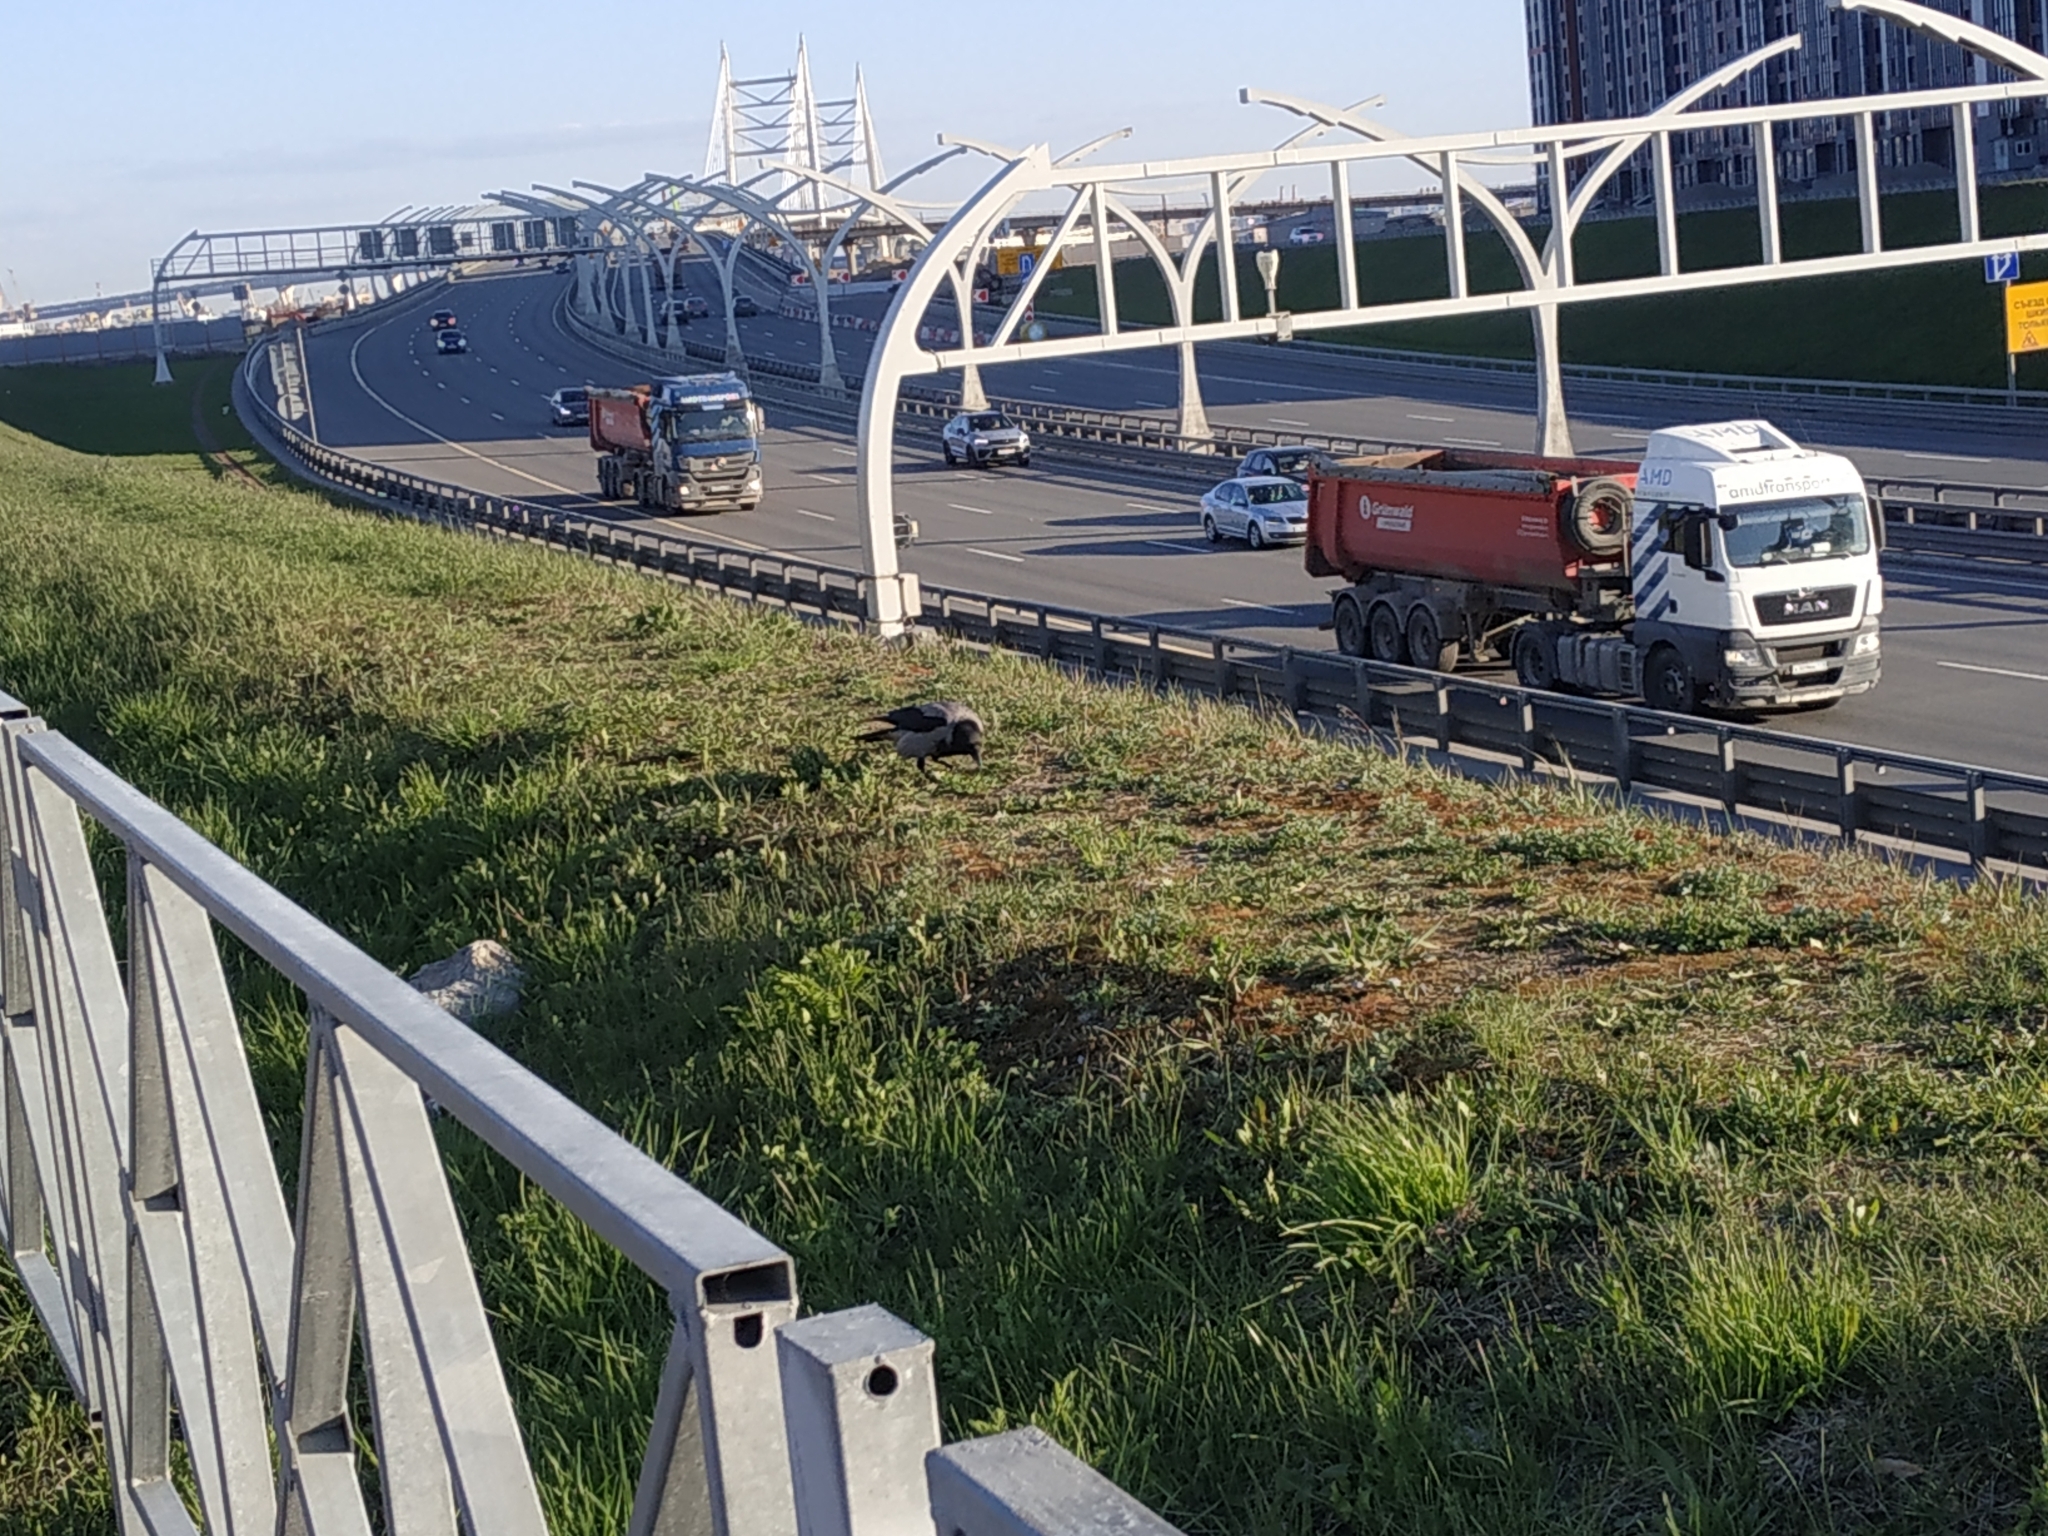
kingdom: Animalia
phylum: Chordata
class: Aves
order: Passeriformes
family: Corvidae
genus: Corvus
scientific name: Corvus cornix
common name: Hooded crow
